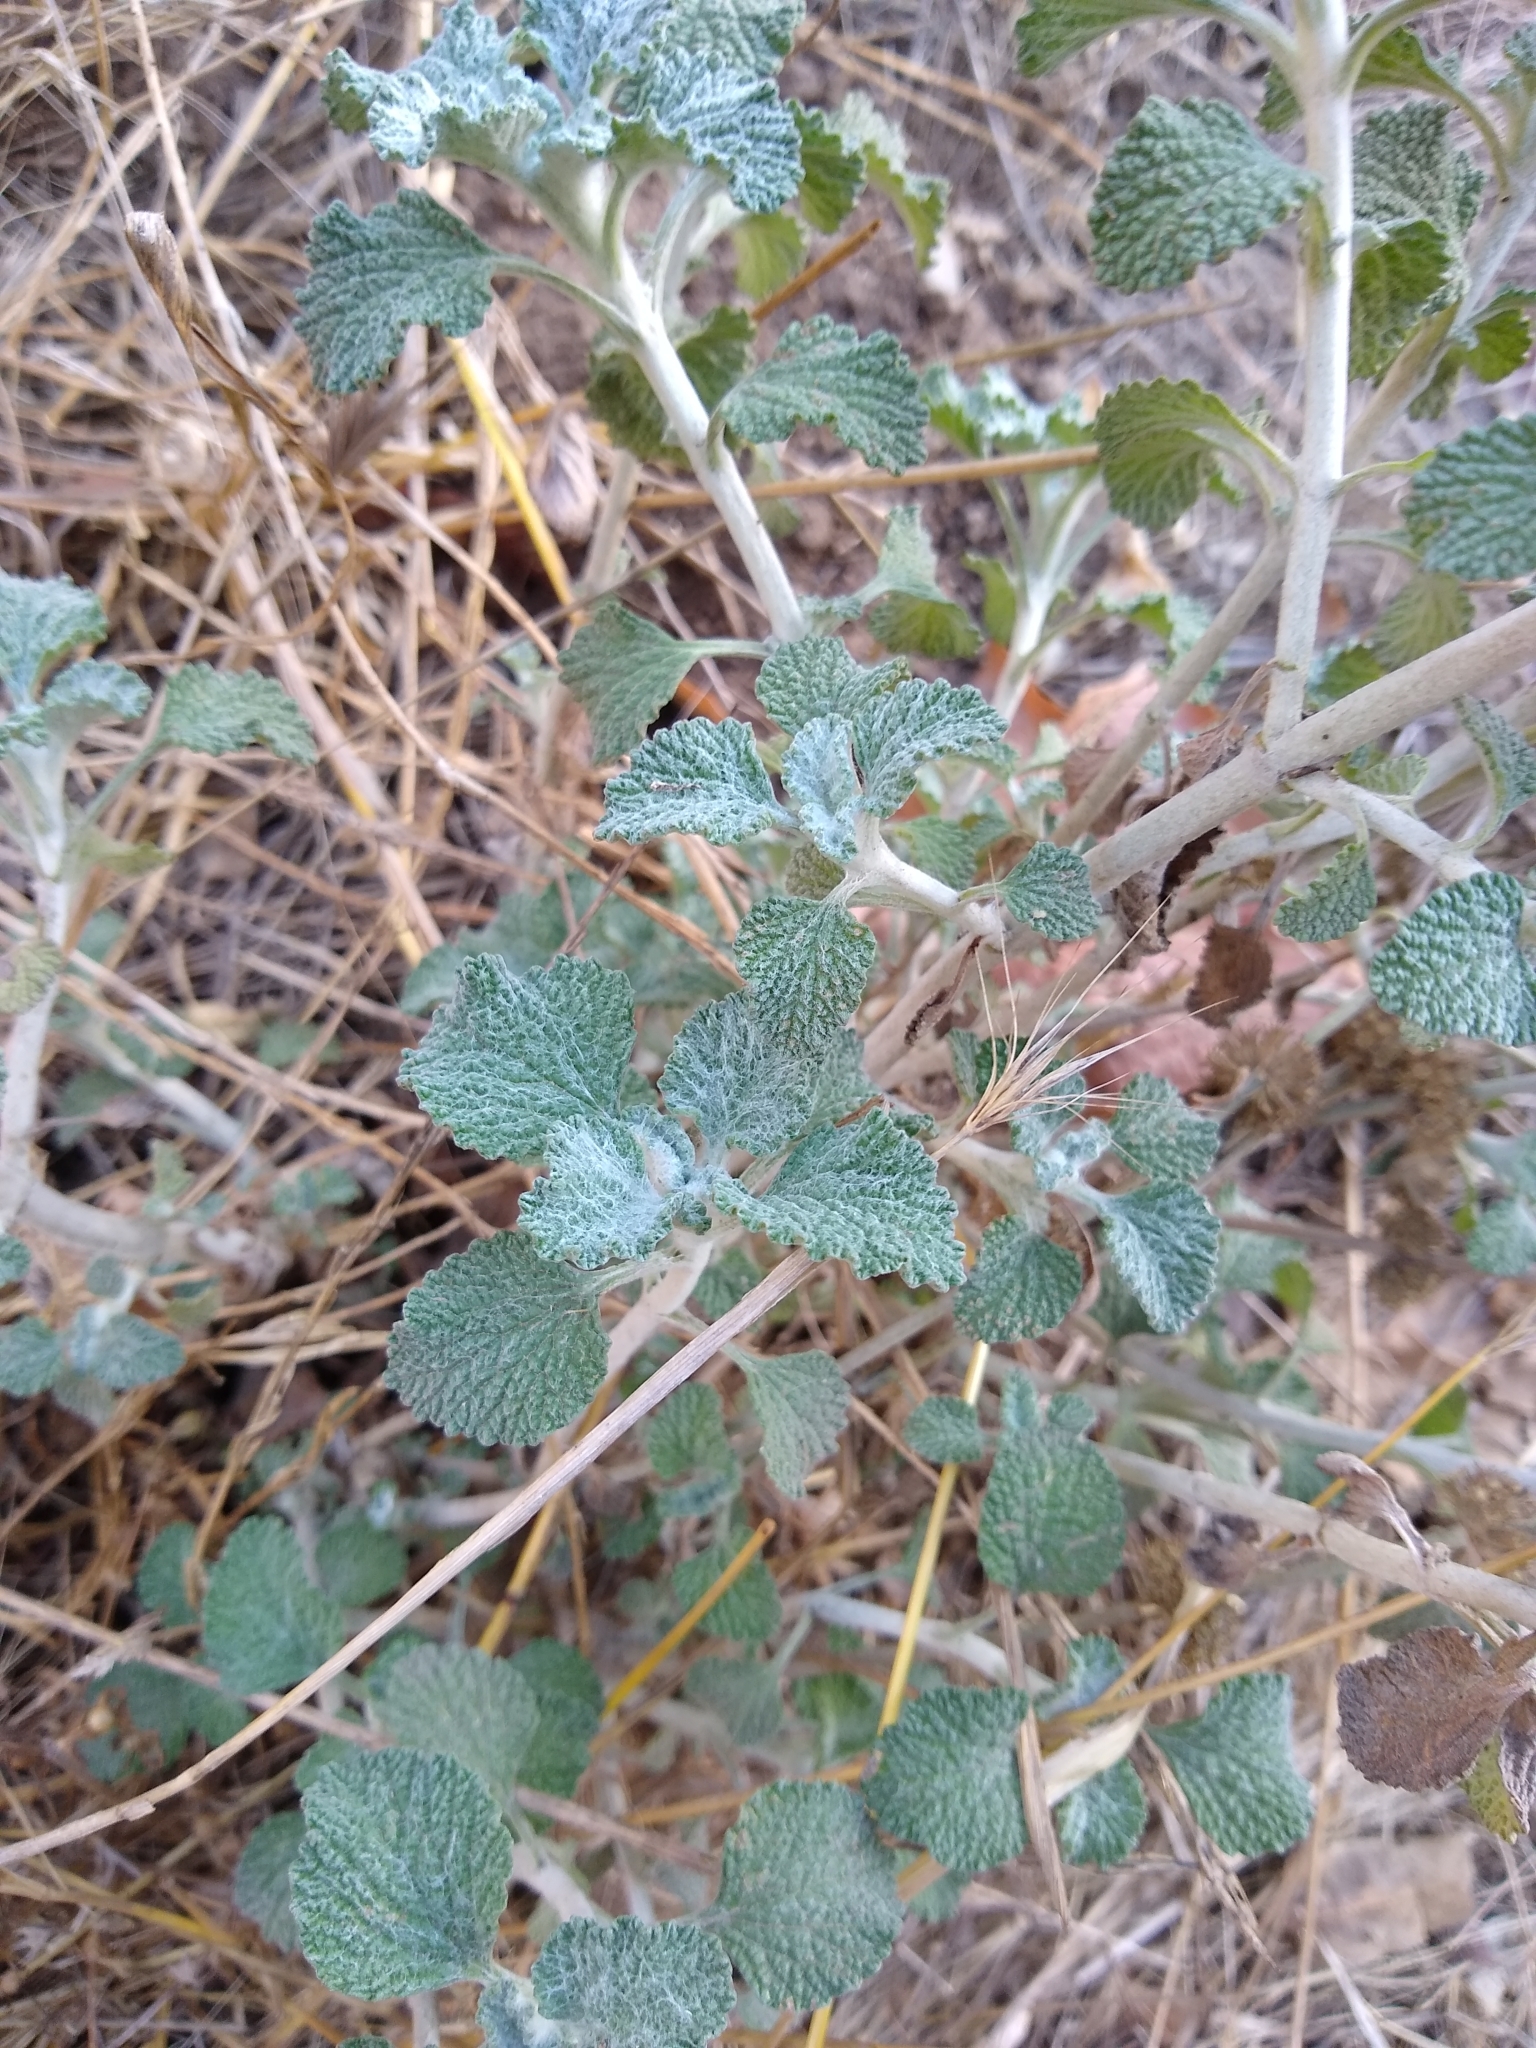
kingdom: Plantae
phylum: Tracheophyta
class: Magnoliopsida
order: Lamiales
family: Lamiaceae
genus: Marrubium
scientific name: Marrubium vulgare
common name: Horehound
